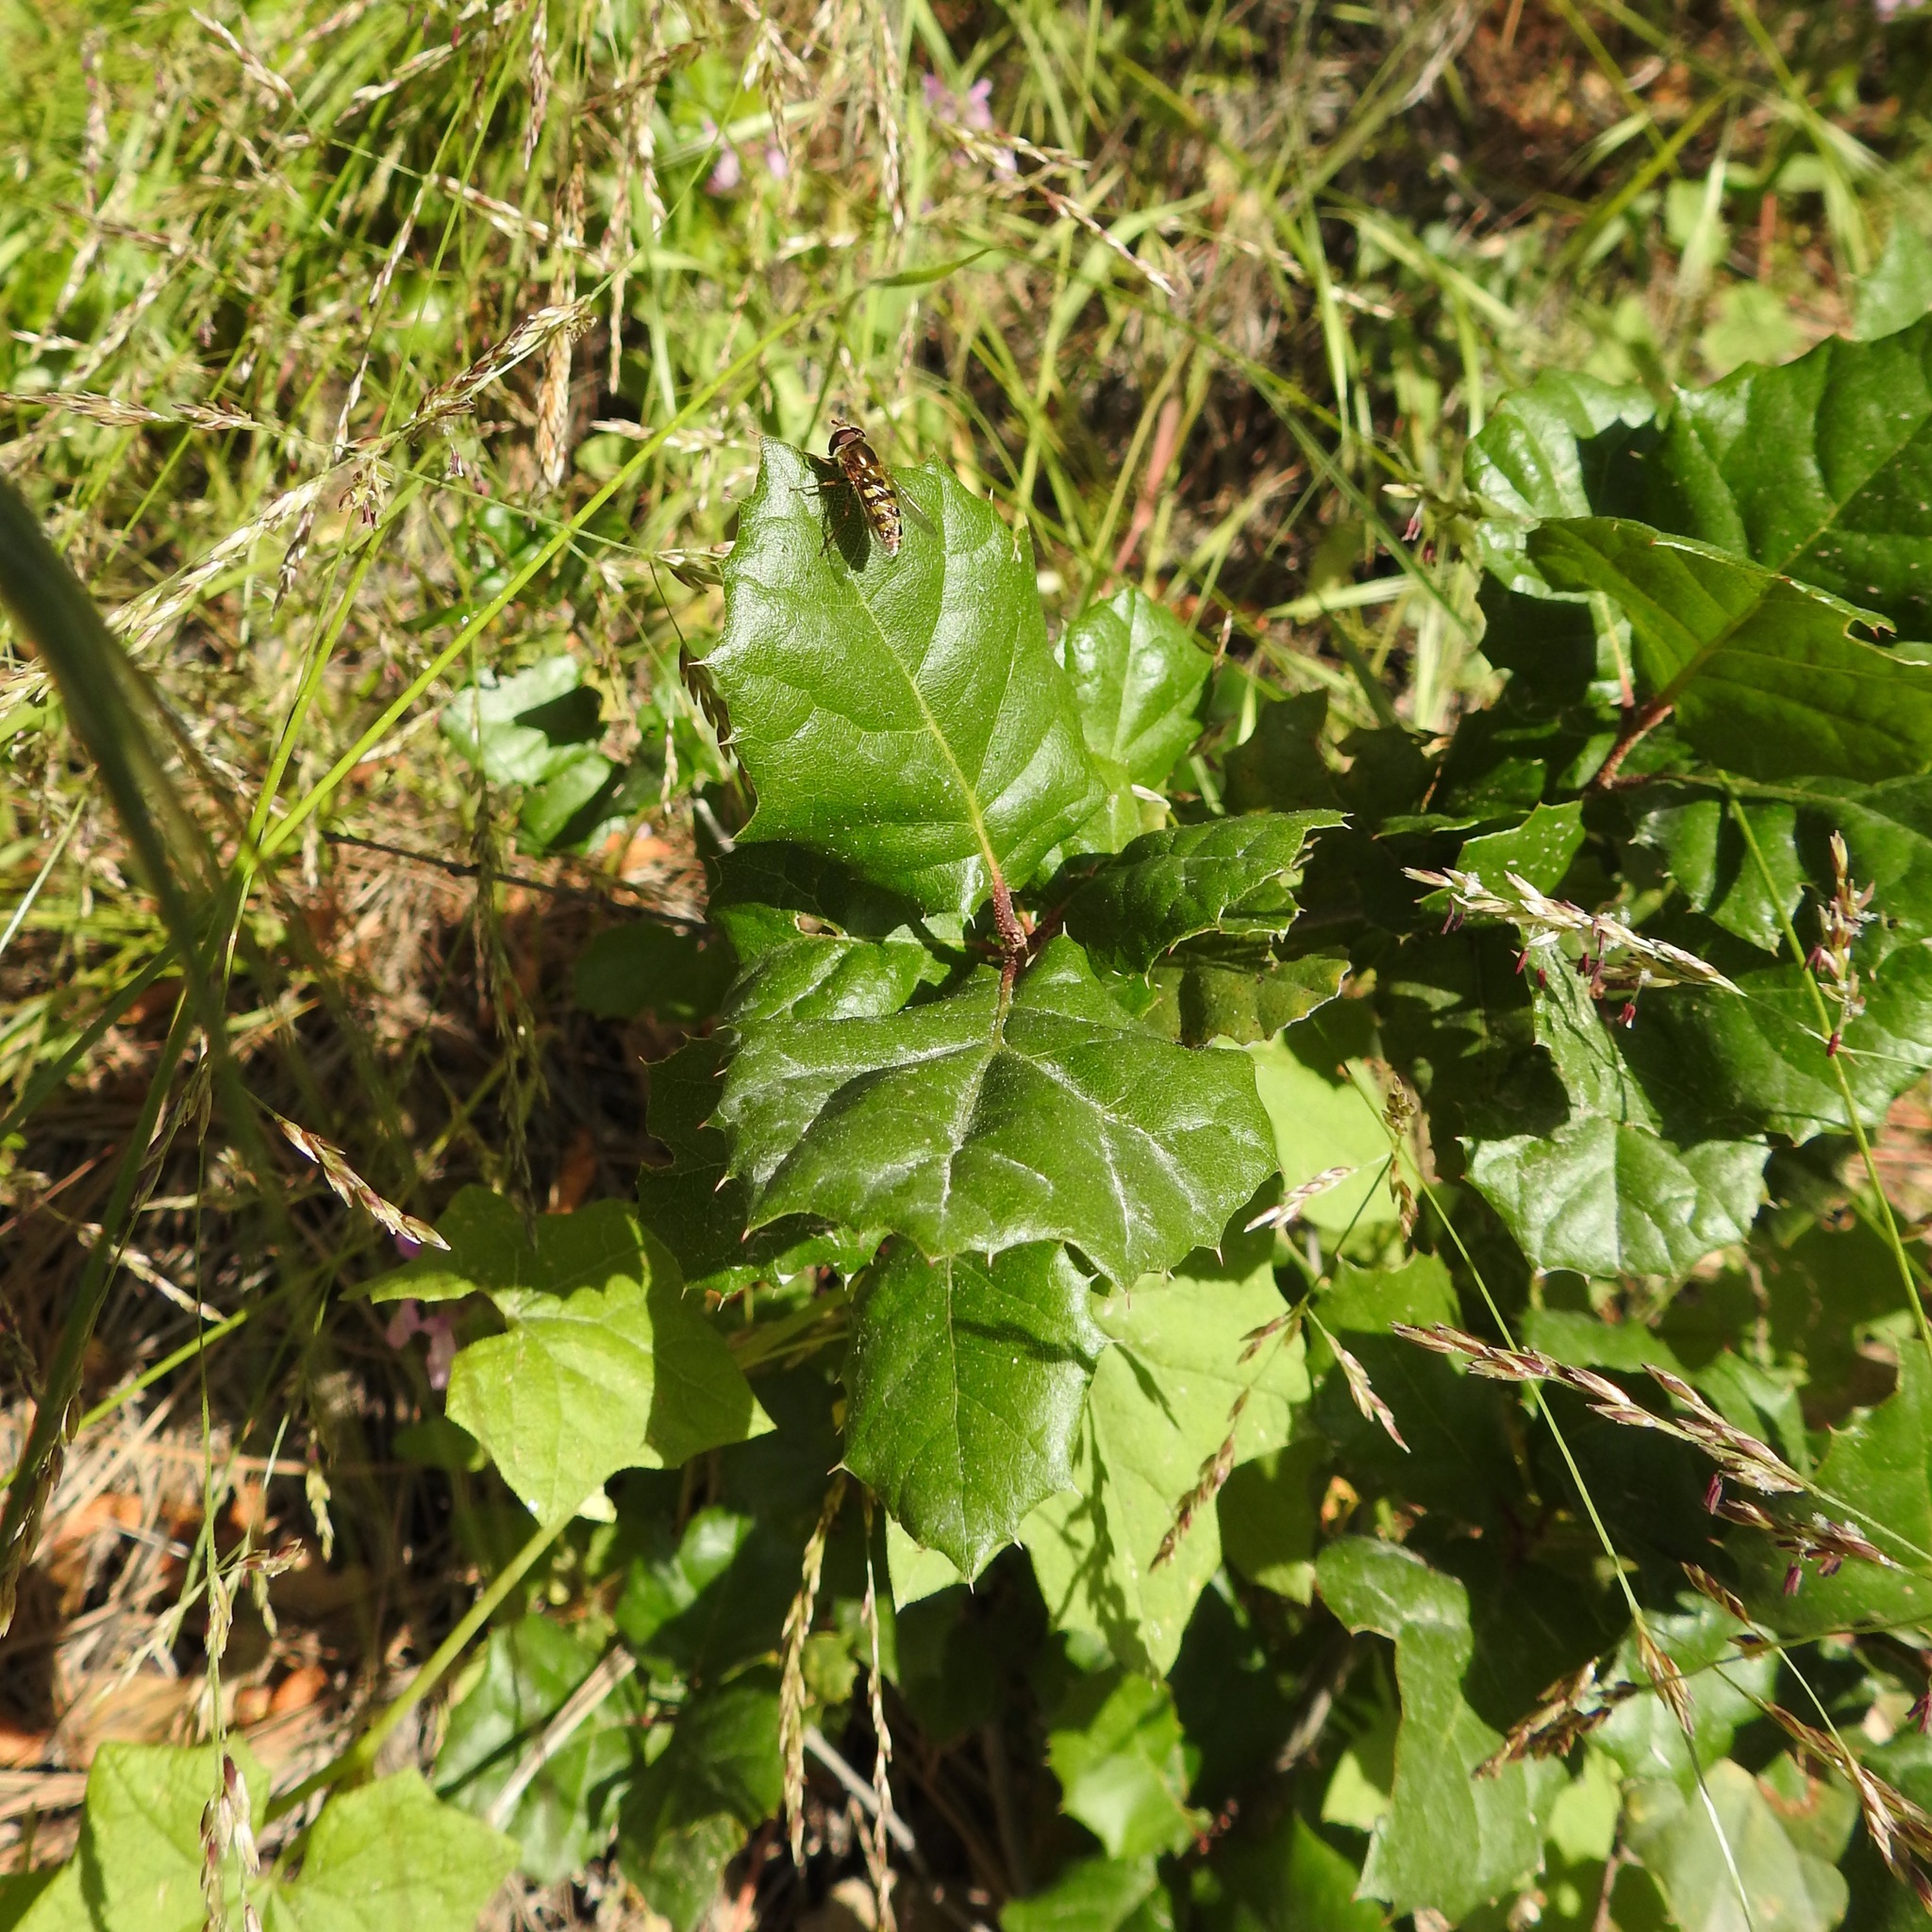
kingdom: Plantae
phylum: Tracheophyta
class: Magnoliopsida
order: Fagales
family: Fagaceae
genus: Quercus
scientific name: Quercus agrifolia
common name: California live oak
